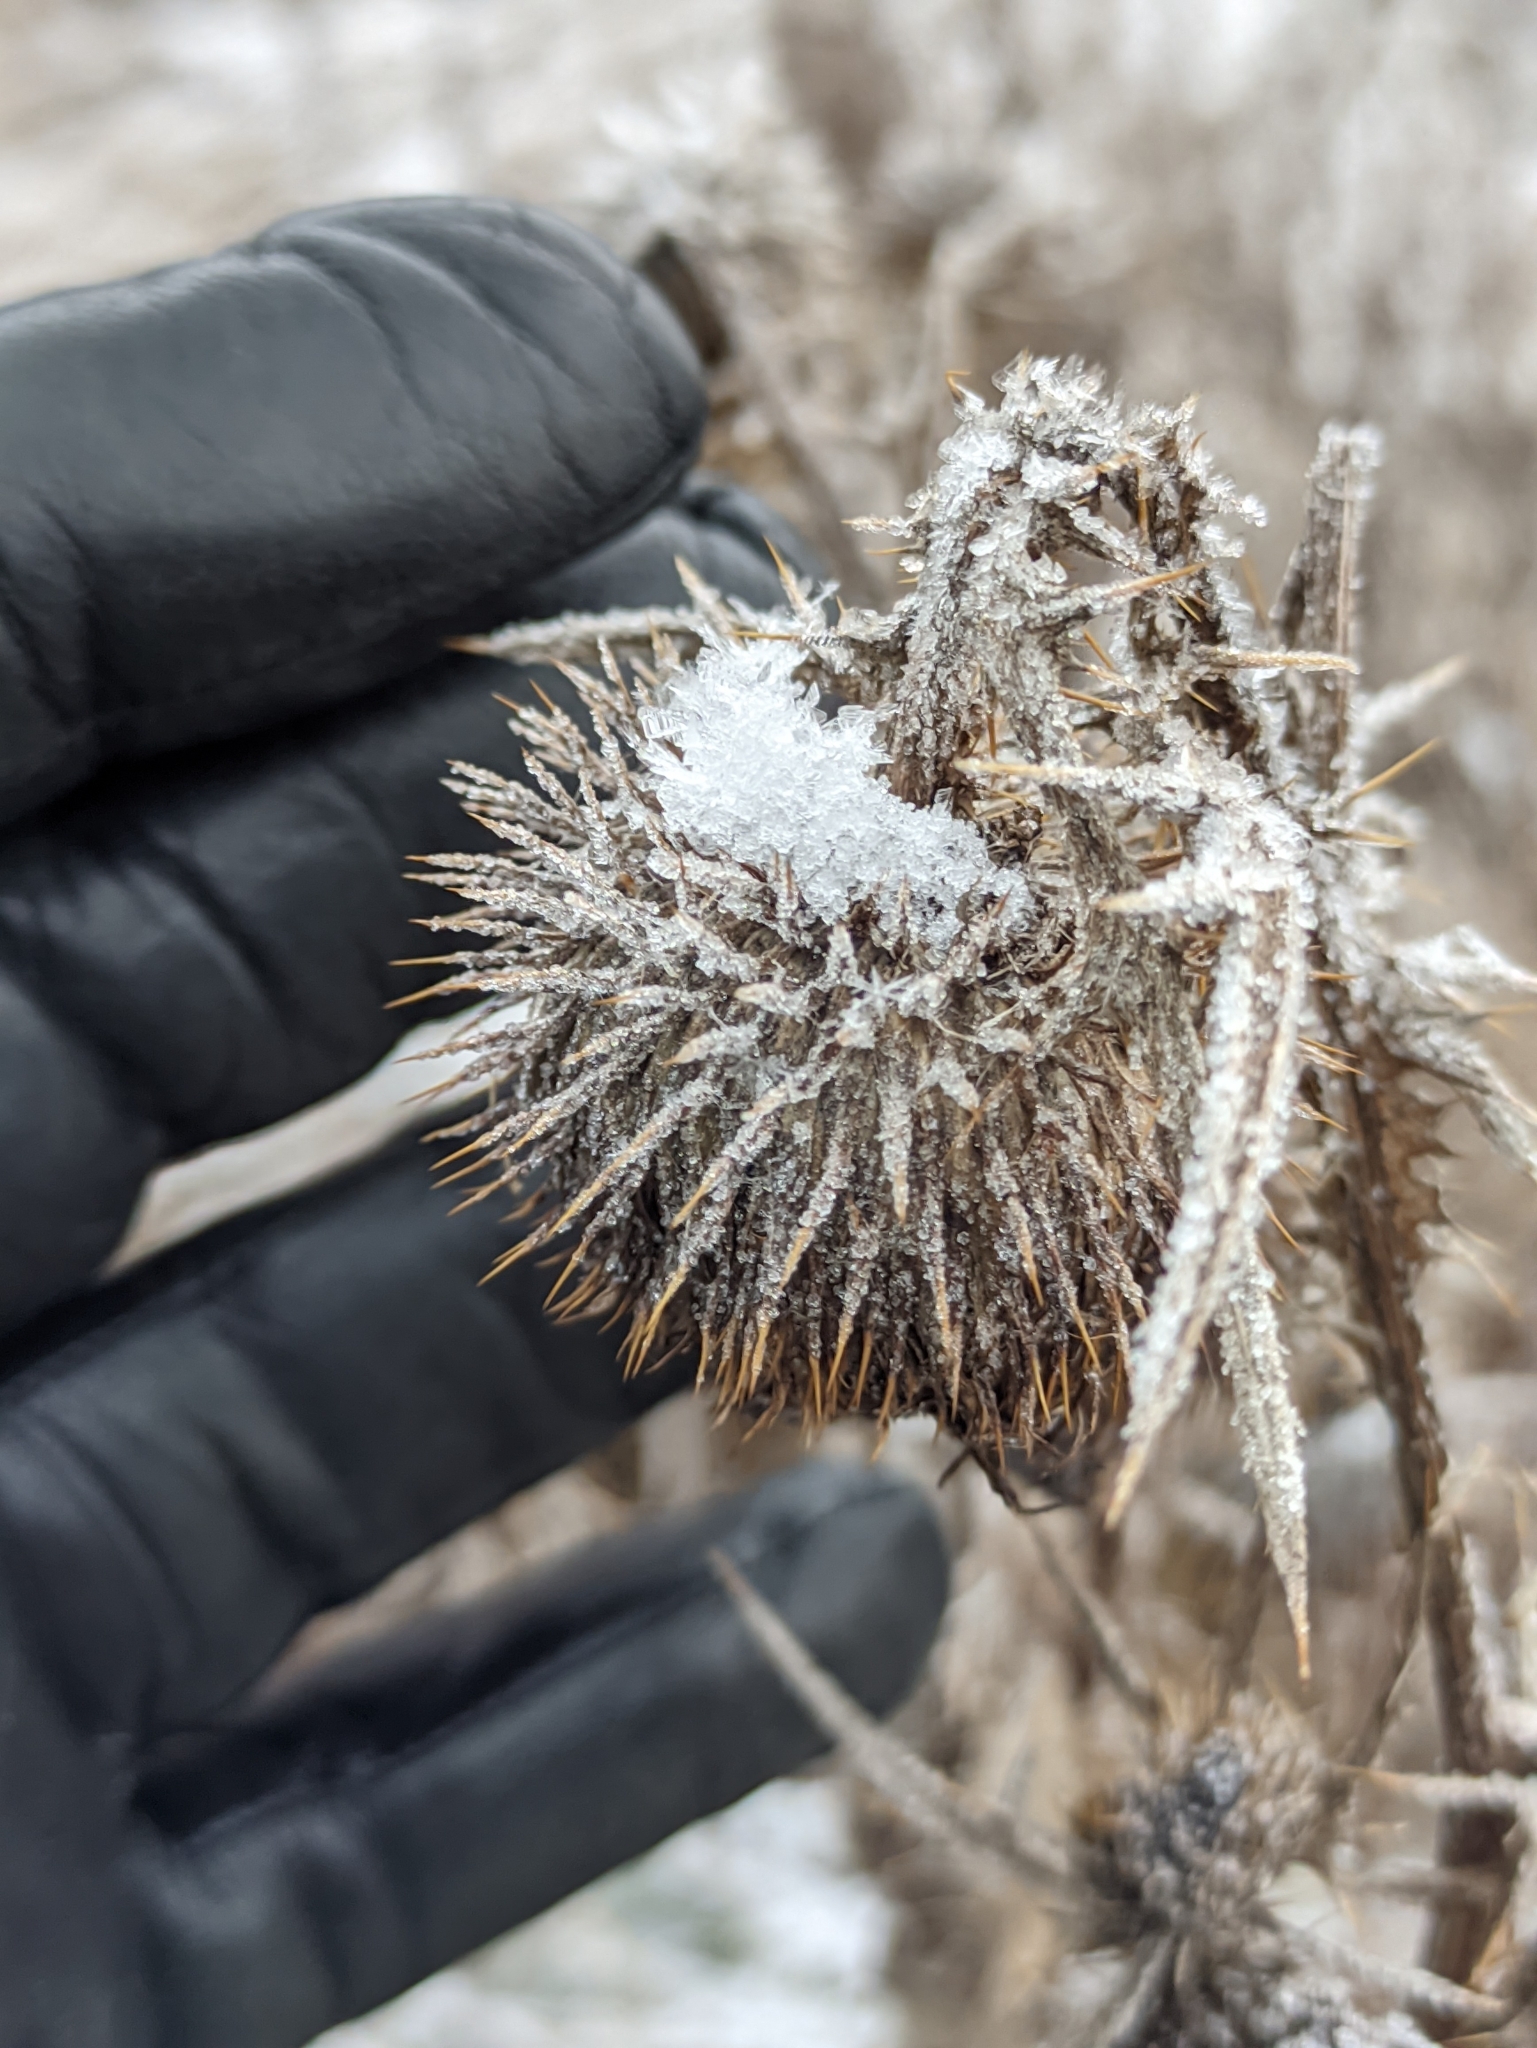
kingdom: Plantae
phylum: Tracheophyta
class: Magnoliopsida
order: Asterales
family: Asteraceae
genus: Cirsium
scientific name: Cirsium vulgare
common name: Bull thistle
